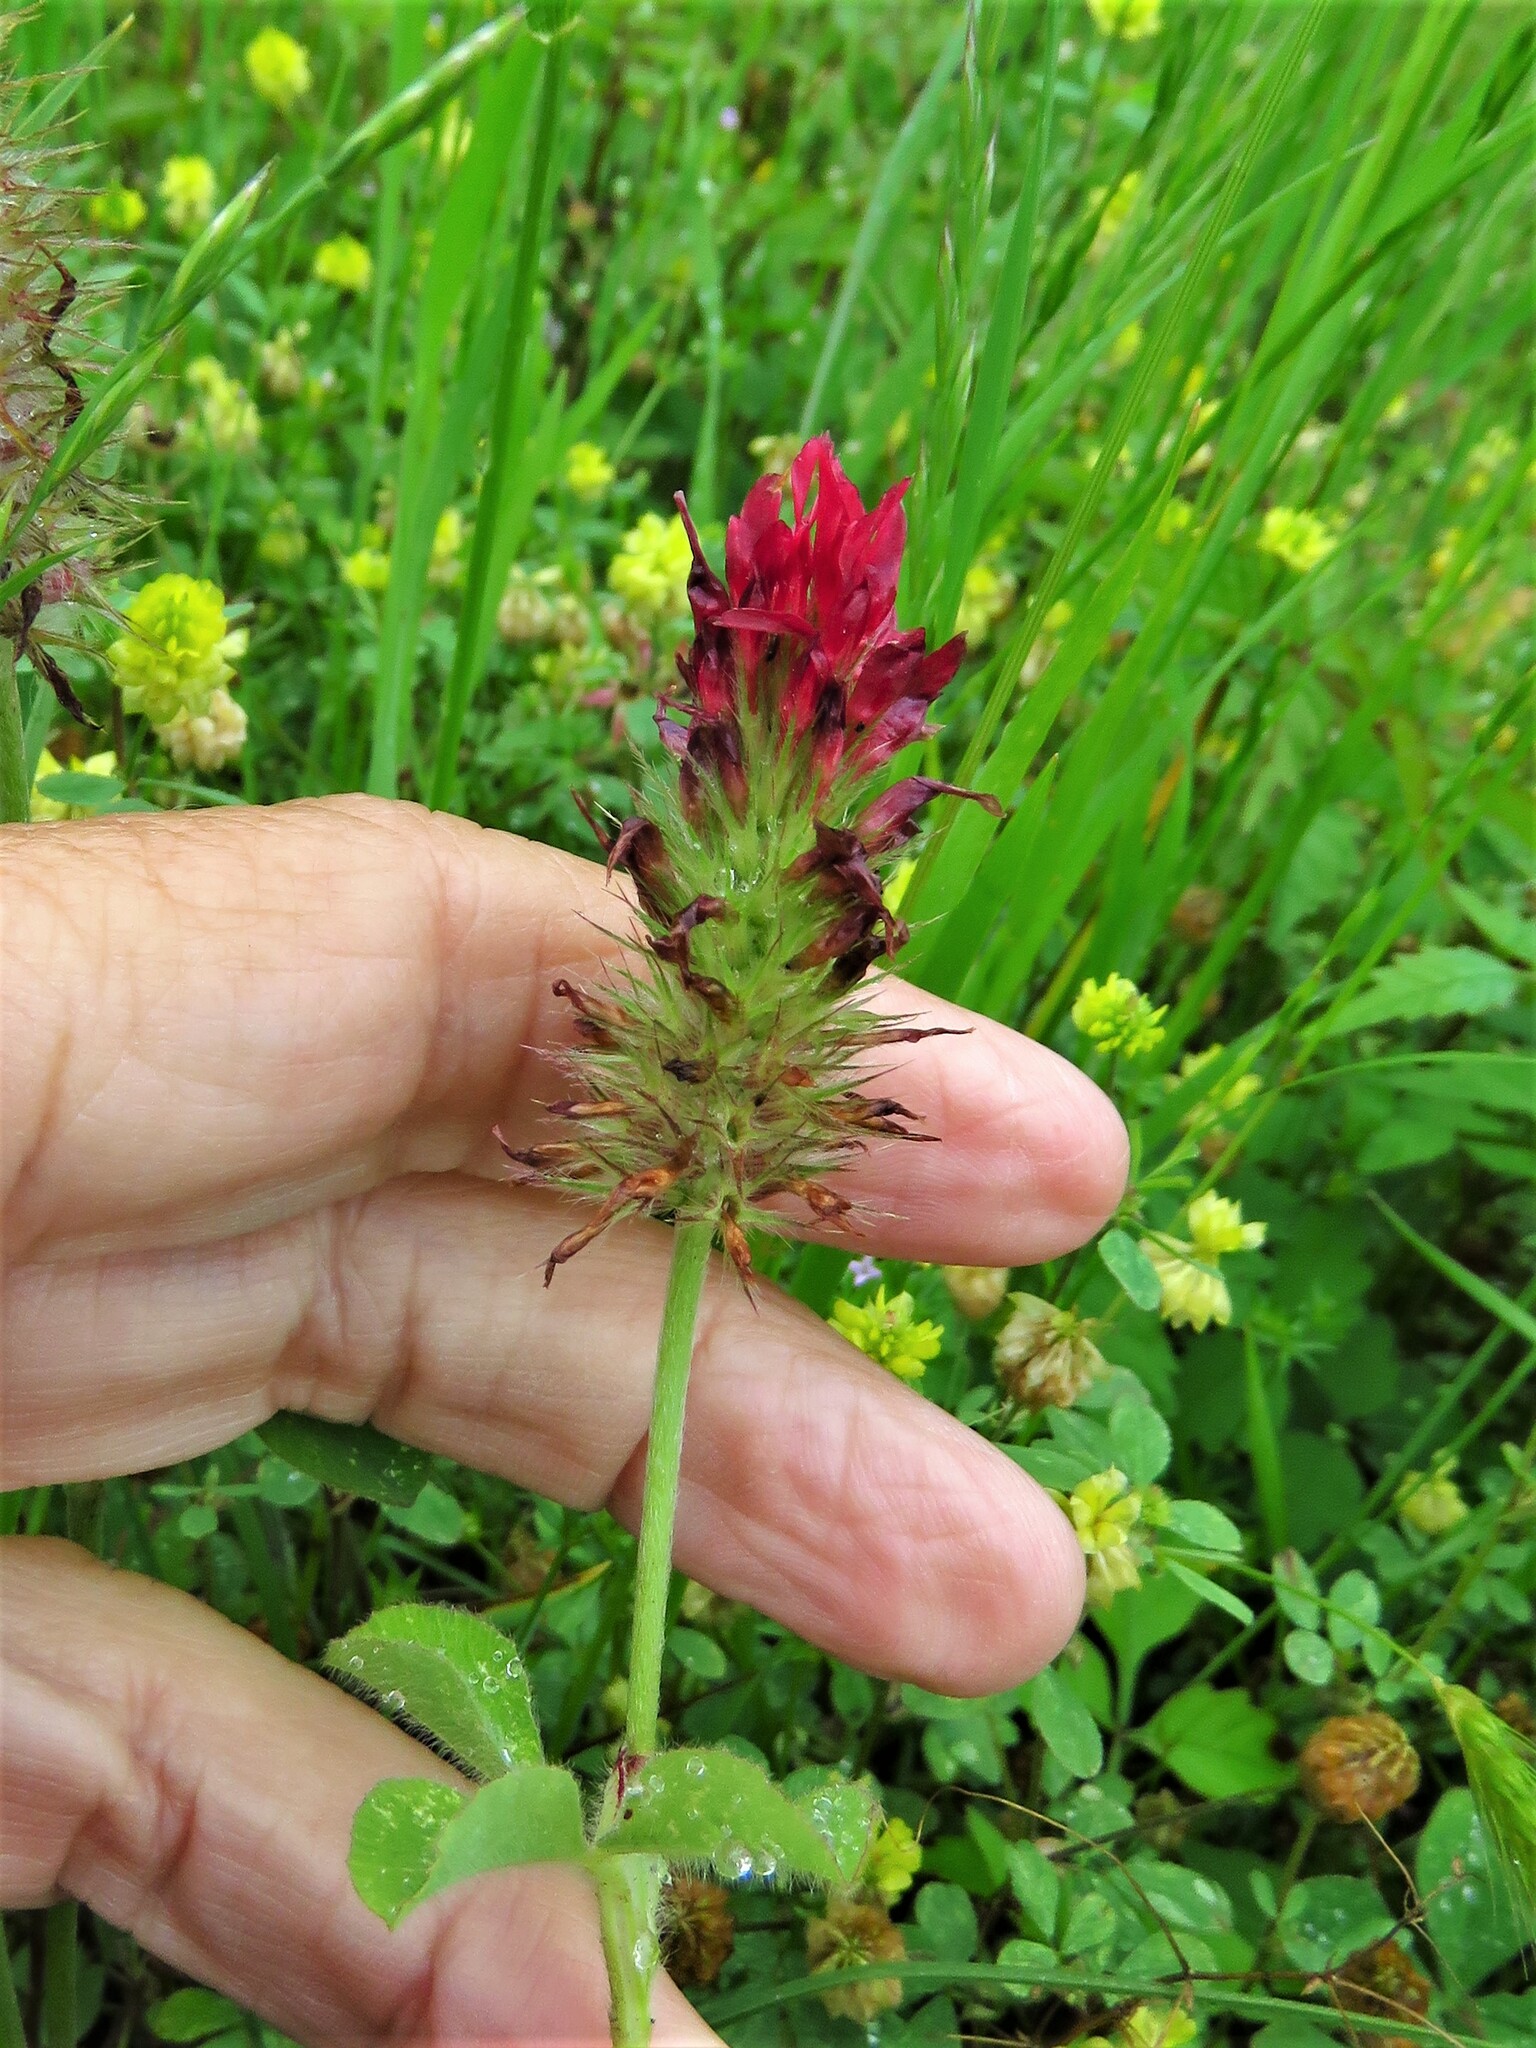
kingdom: Plantae
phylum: Tracheophyta
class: Magnoliopsida
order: Fabales
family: Fabaceae
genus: Trifolium
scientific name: Trifolium incarnatum
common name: Crimson clover
